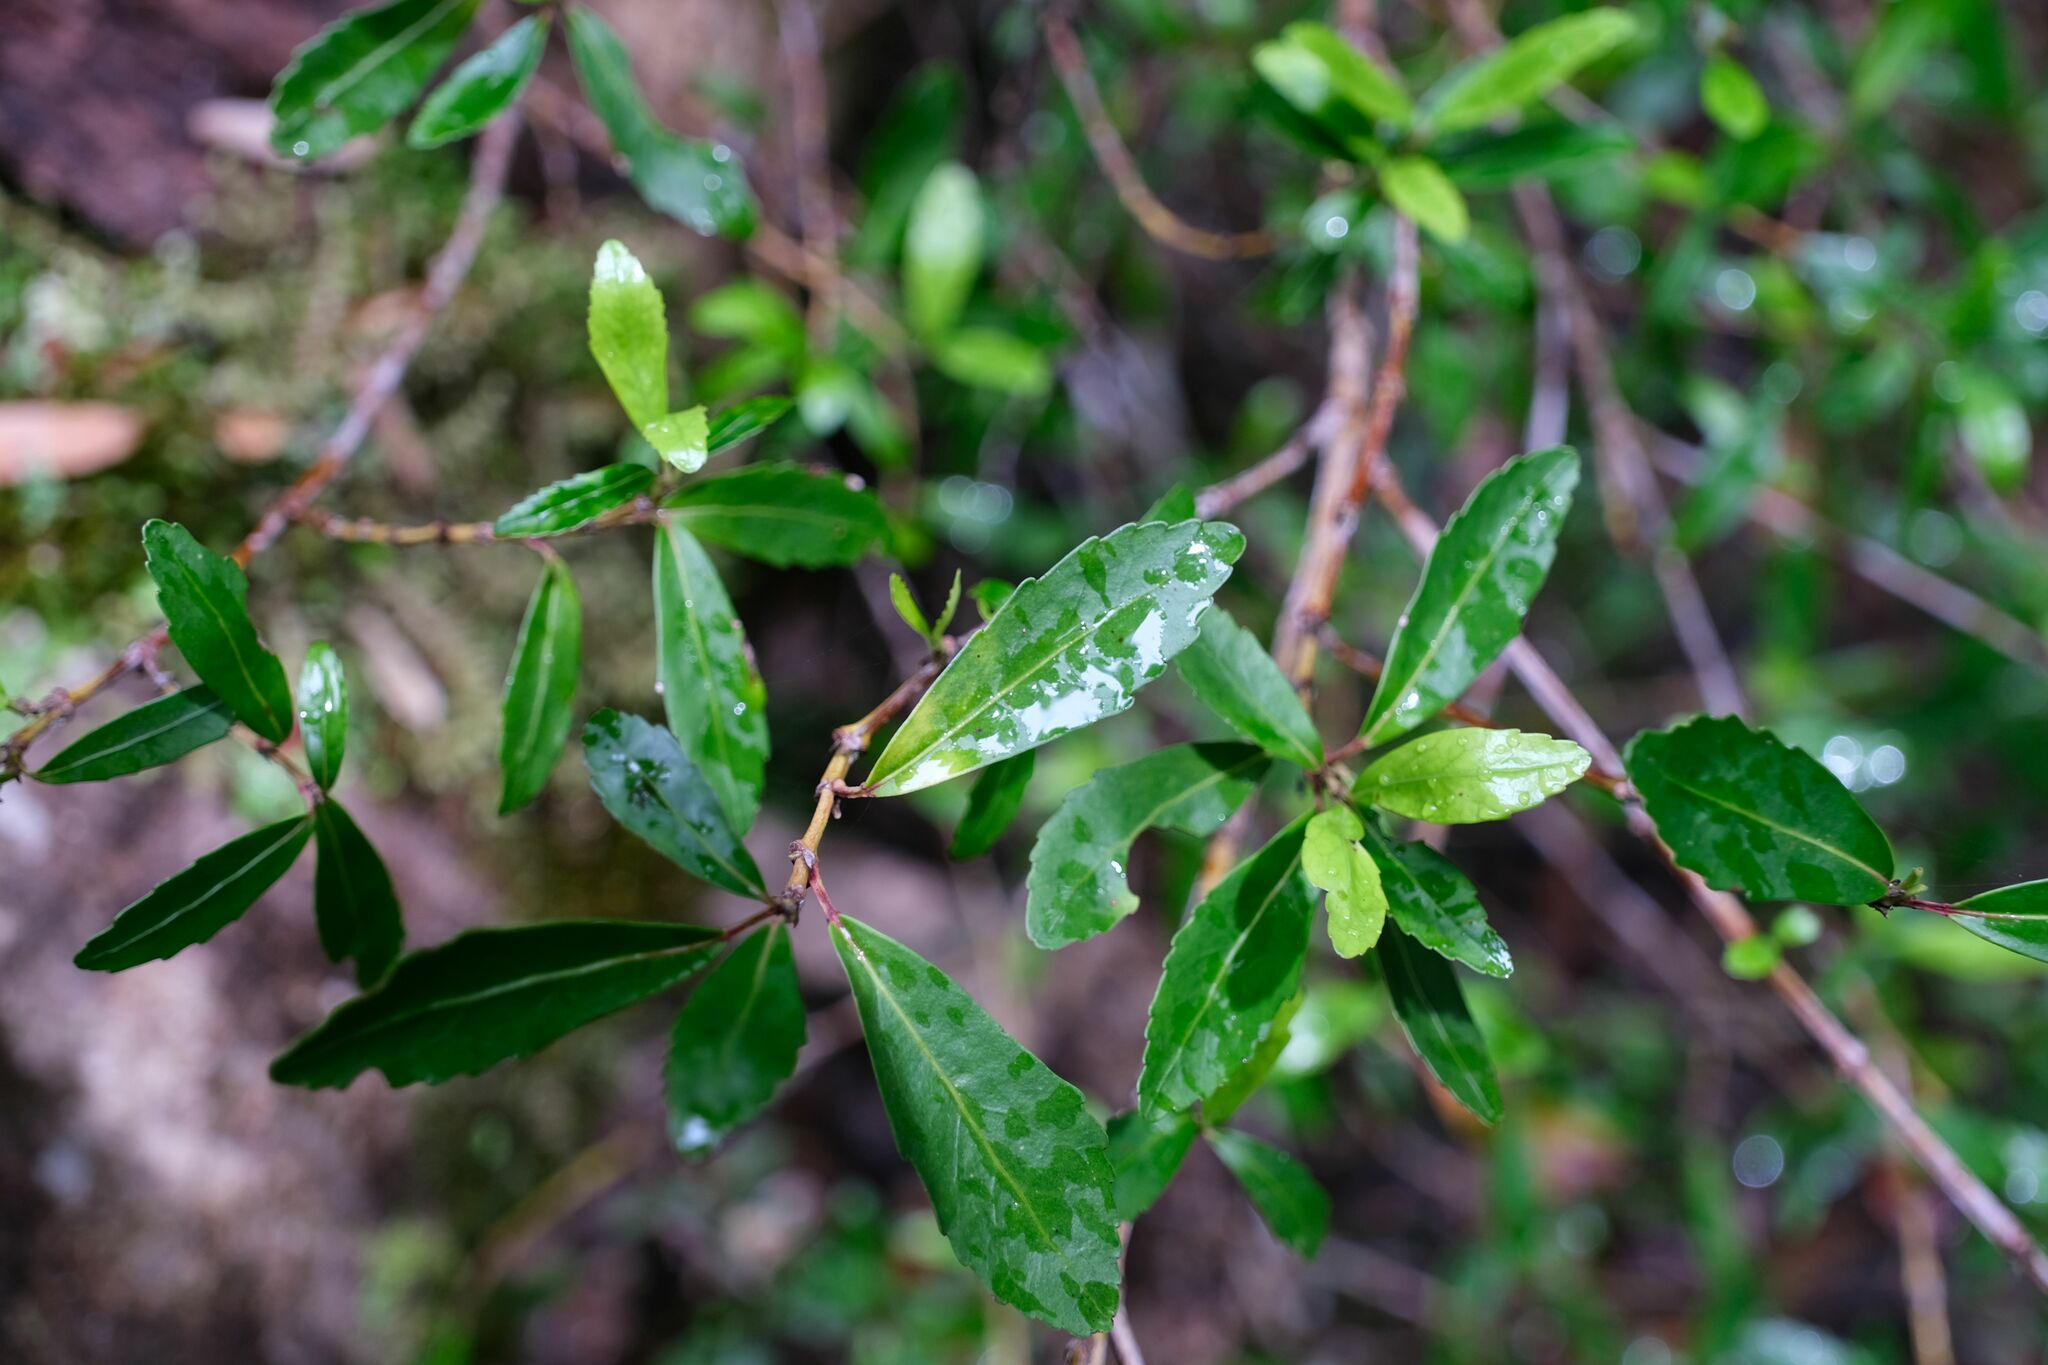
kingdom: Plantae
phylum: Tracheophyta
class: Magnoliopsida
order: Oxalidales
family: Cunoniaceae
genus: Anodopetalum
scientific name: Anodopetalum biglandulosum
